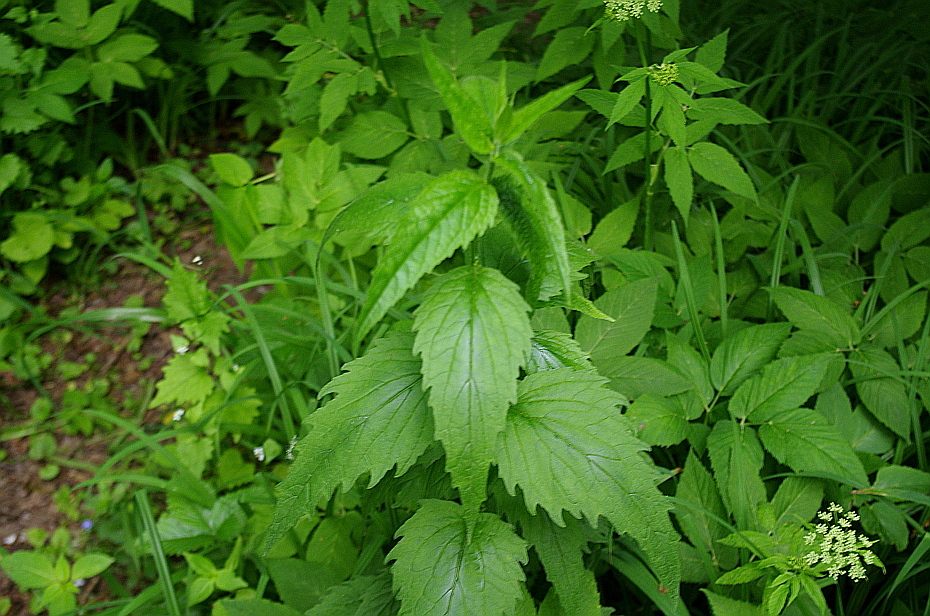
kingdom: Plantae
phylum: Tracheophyta
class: Magnoliopsida
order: Asterales
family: Campanulaceae
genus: Campanula
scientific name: Campanula trachelium
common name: Nettle-leaved bellflower
